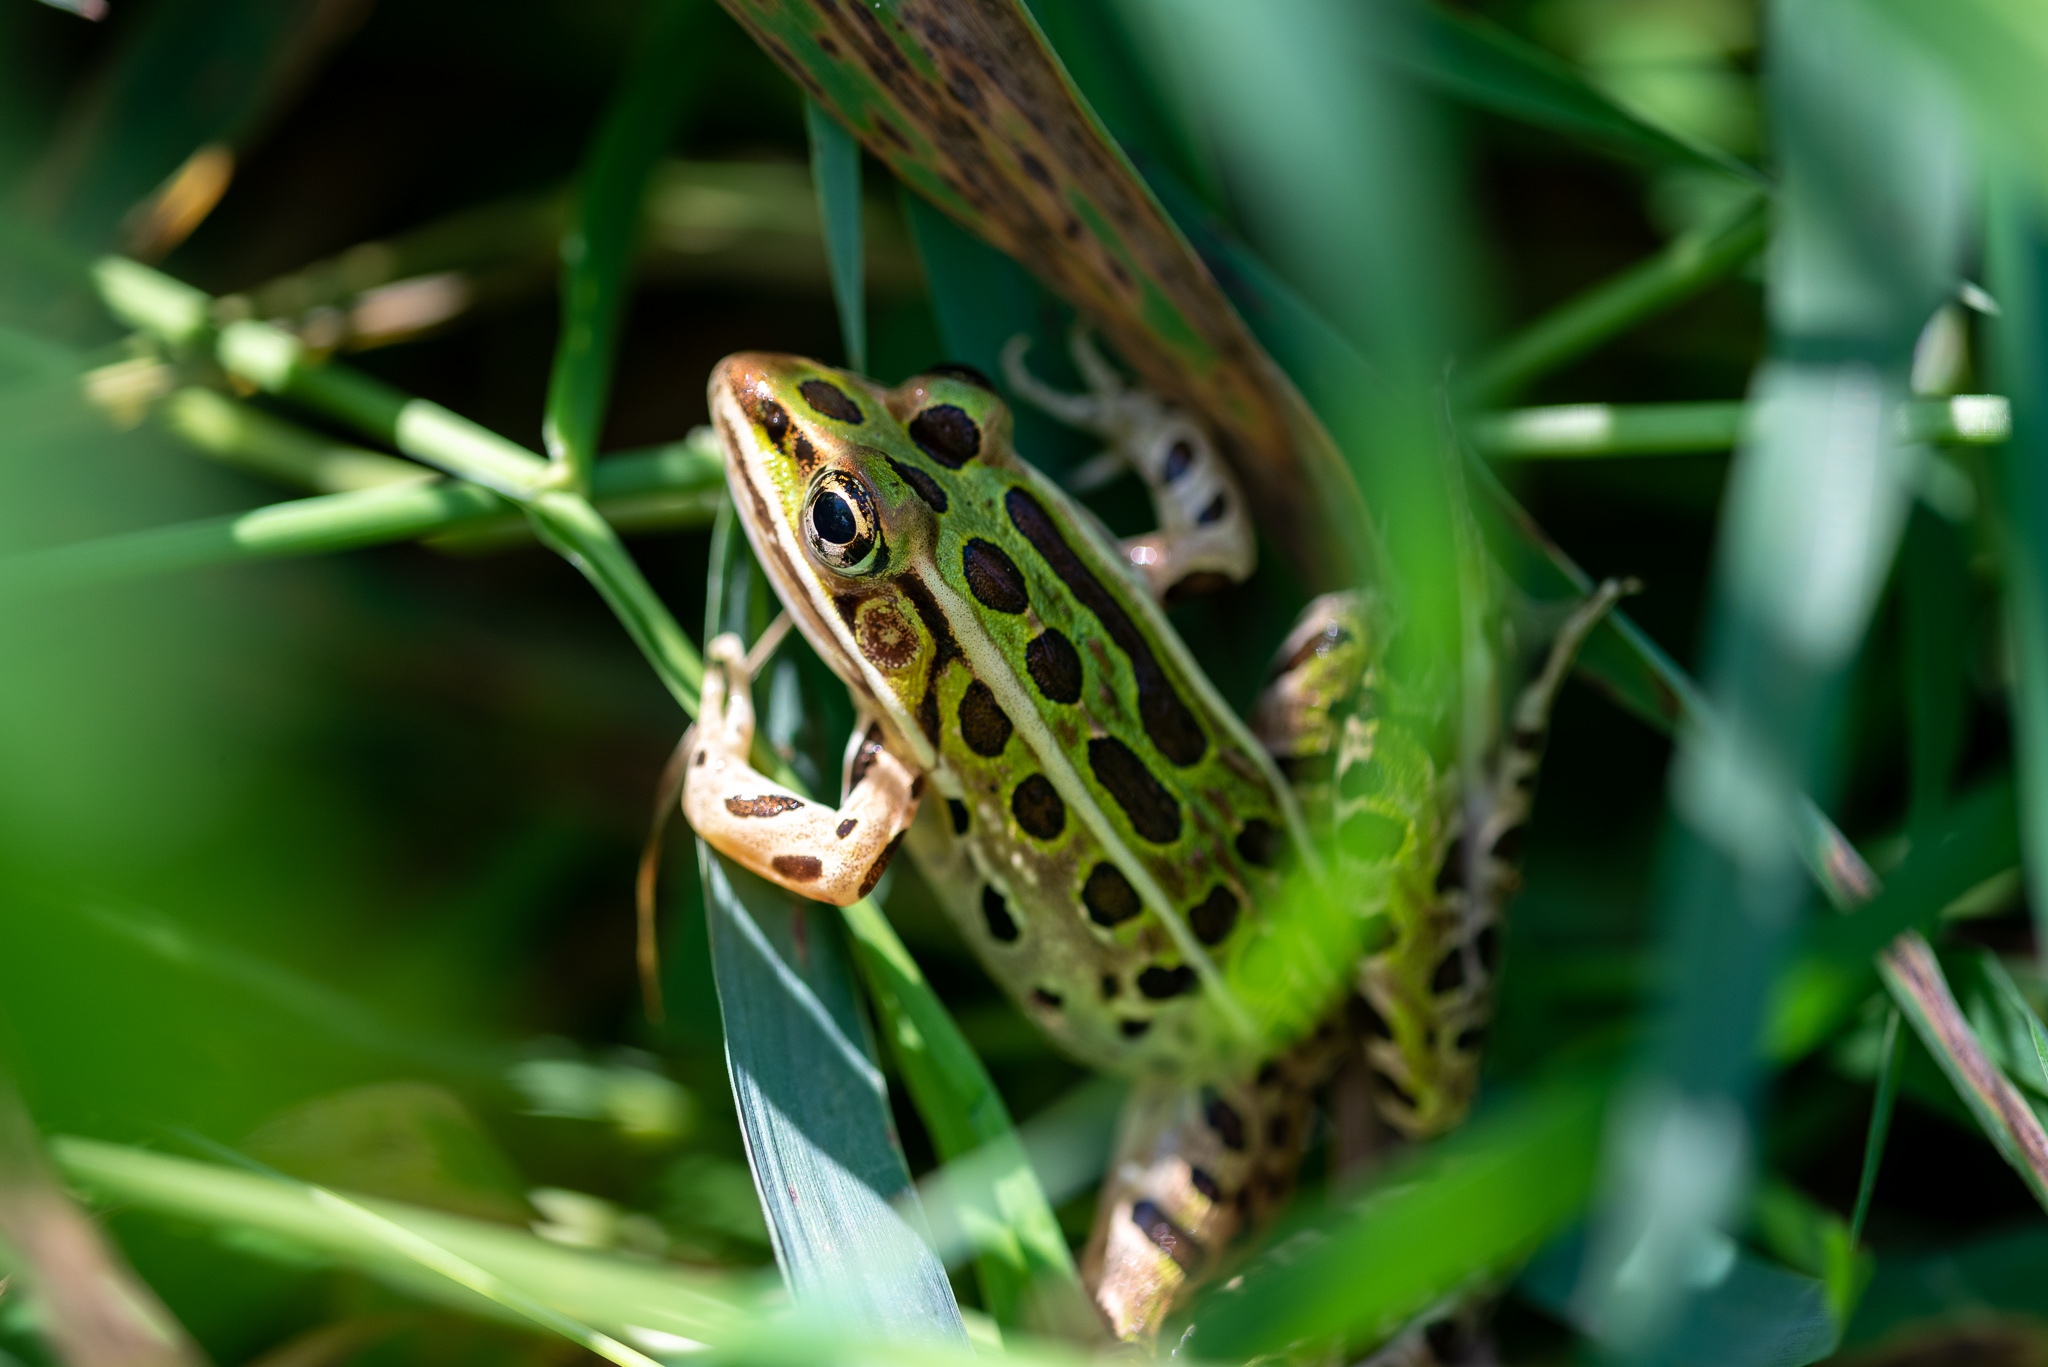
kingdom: Animalia
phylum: Chordata
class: Amphibia
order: Anura
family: Ranidae
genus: Lithobates
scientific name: Lithobates pipiens
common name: Northern leopard frog
